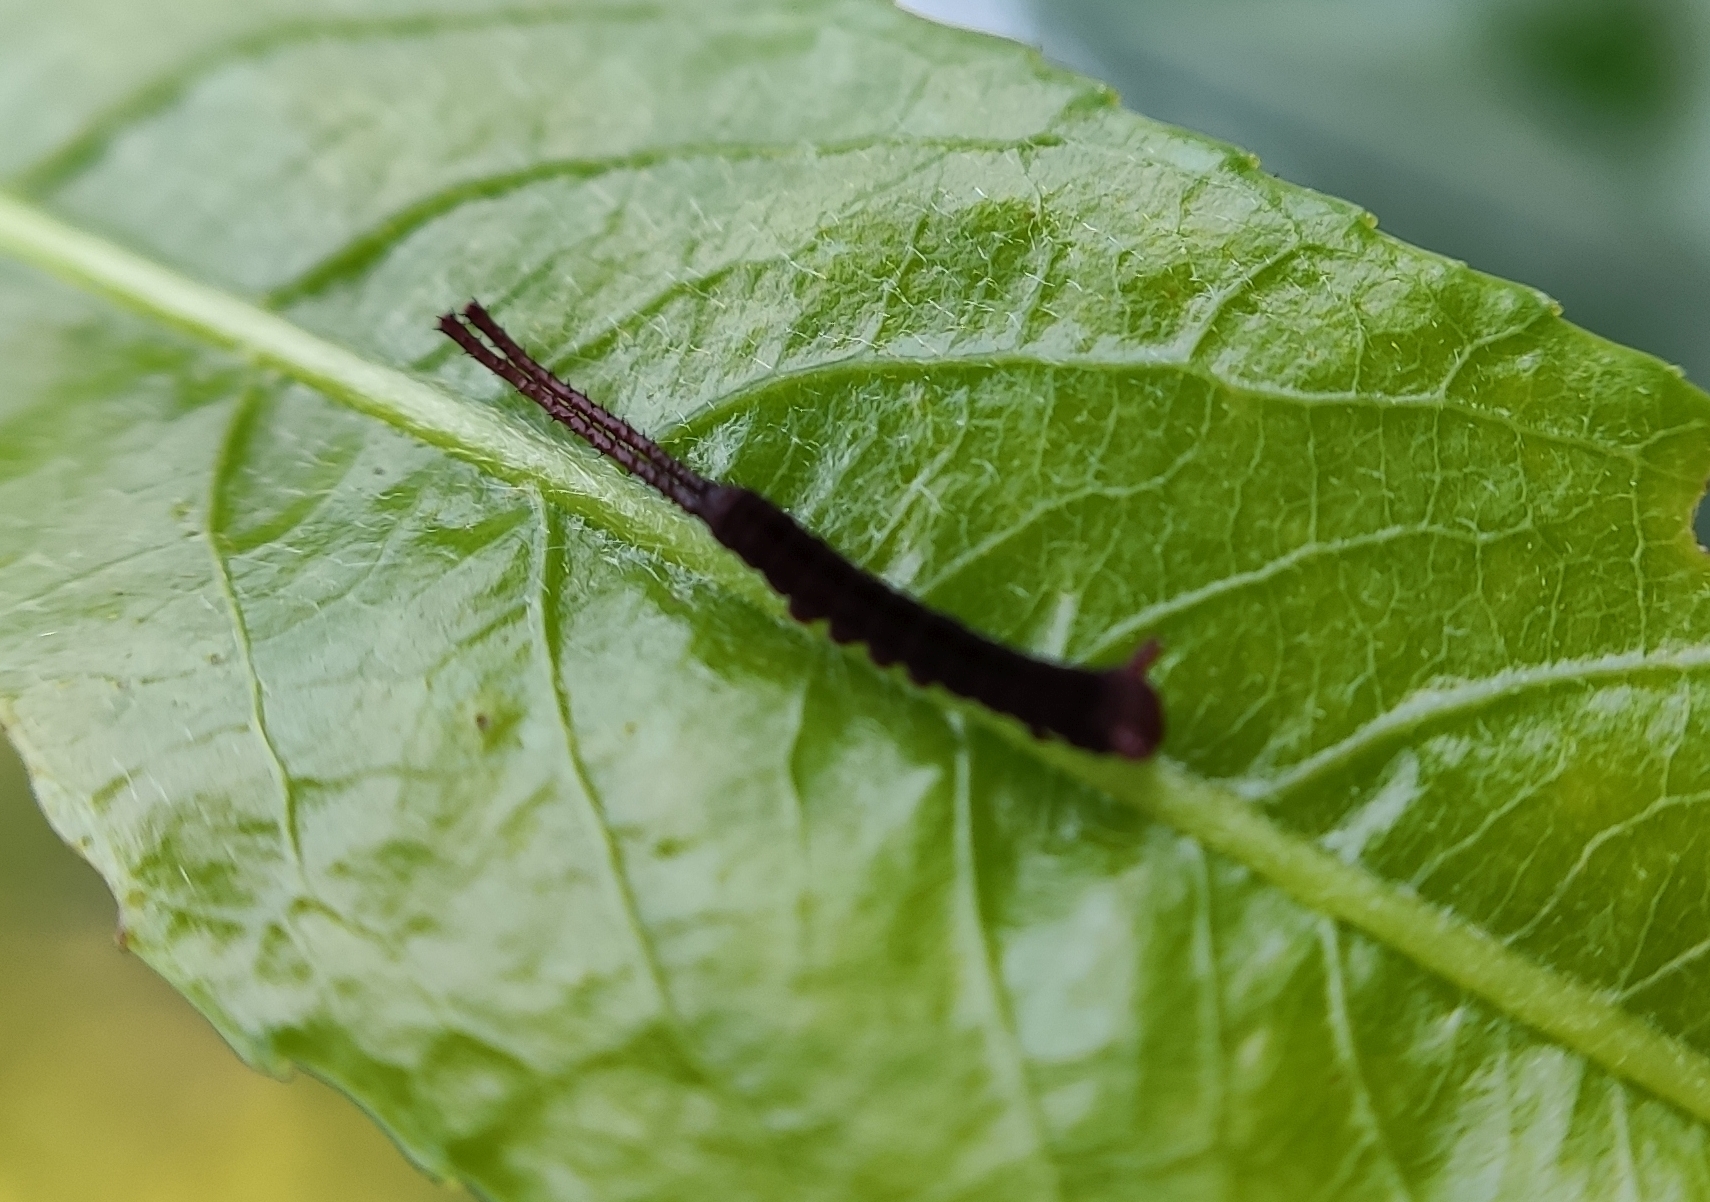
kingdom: Animalia
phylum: Arthropoda
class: Insecta
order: Lepidoptera
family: Notodontidae
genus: Cerura
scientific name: Cerura erminea
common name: Lesser puss moth
